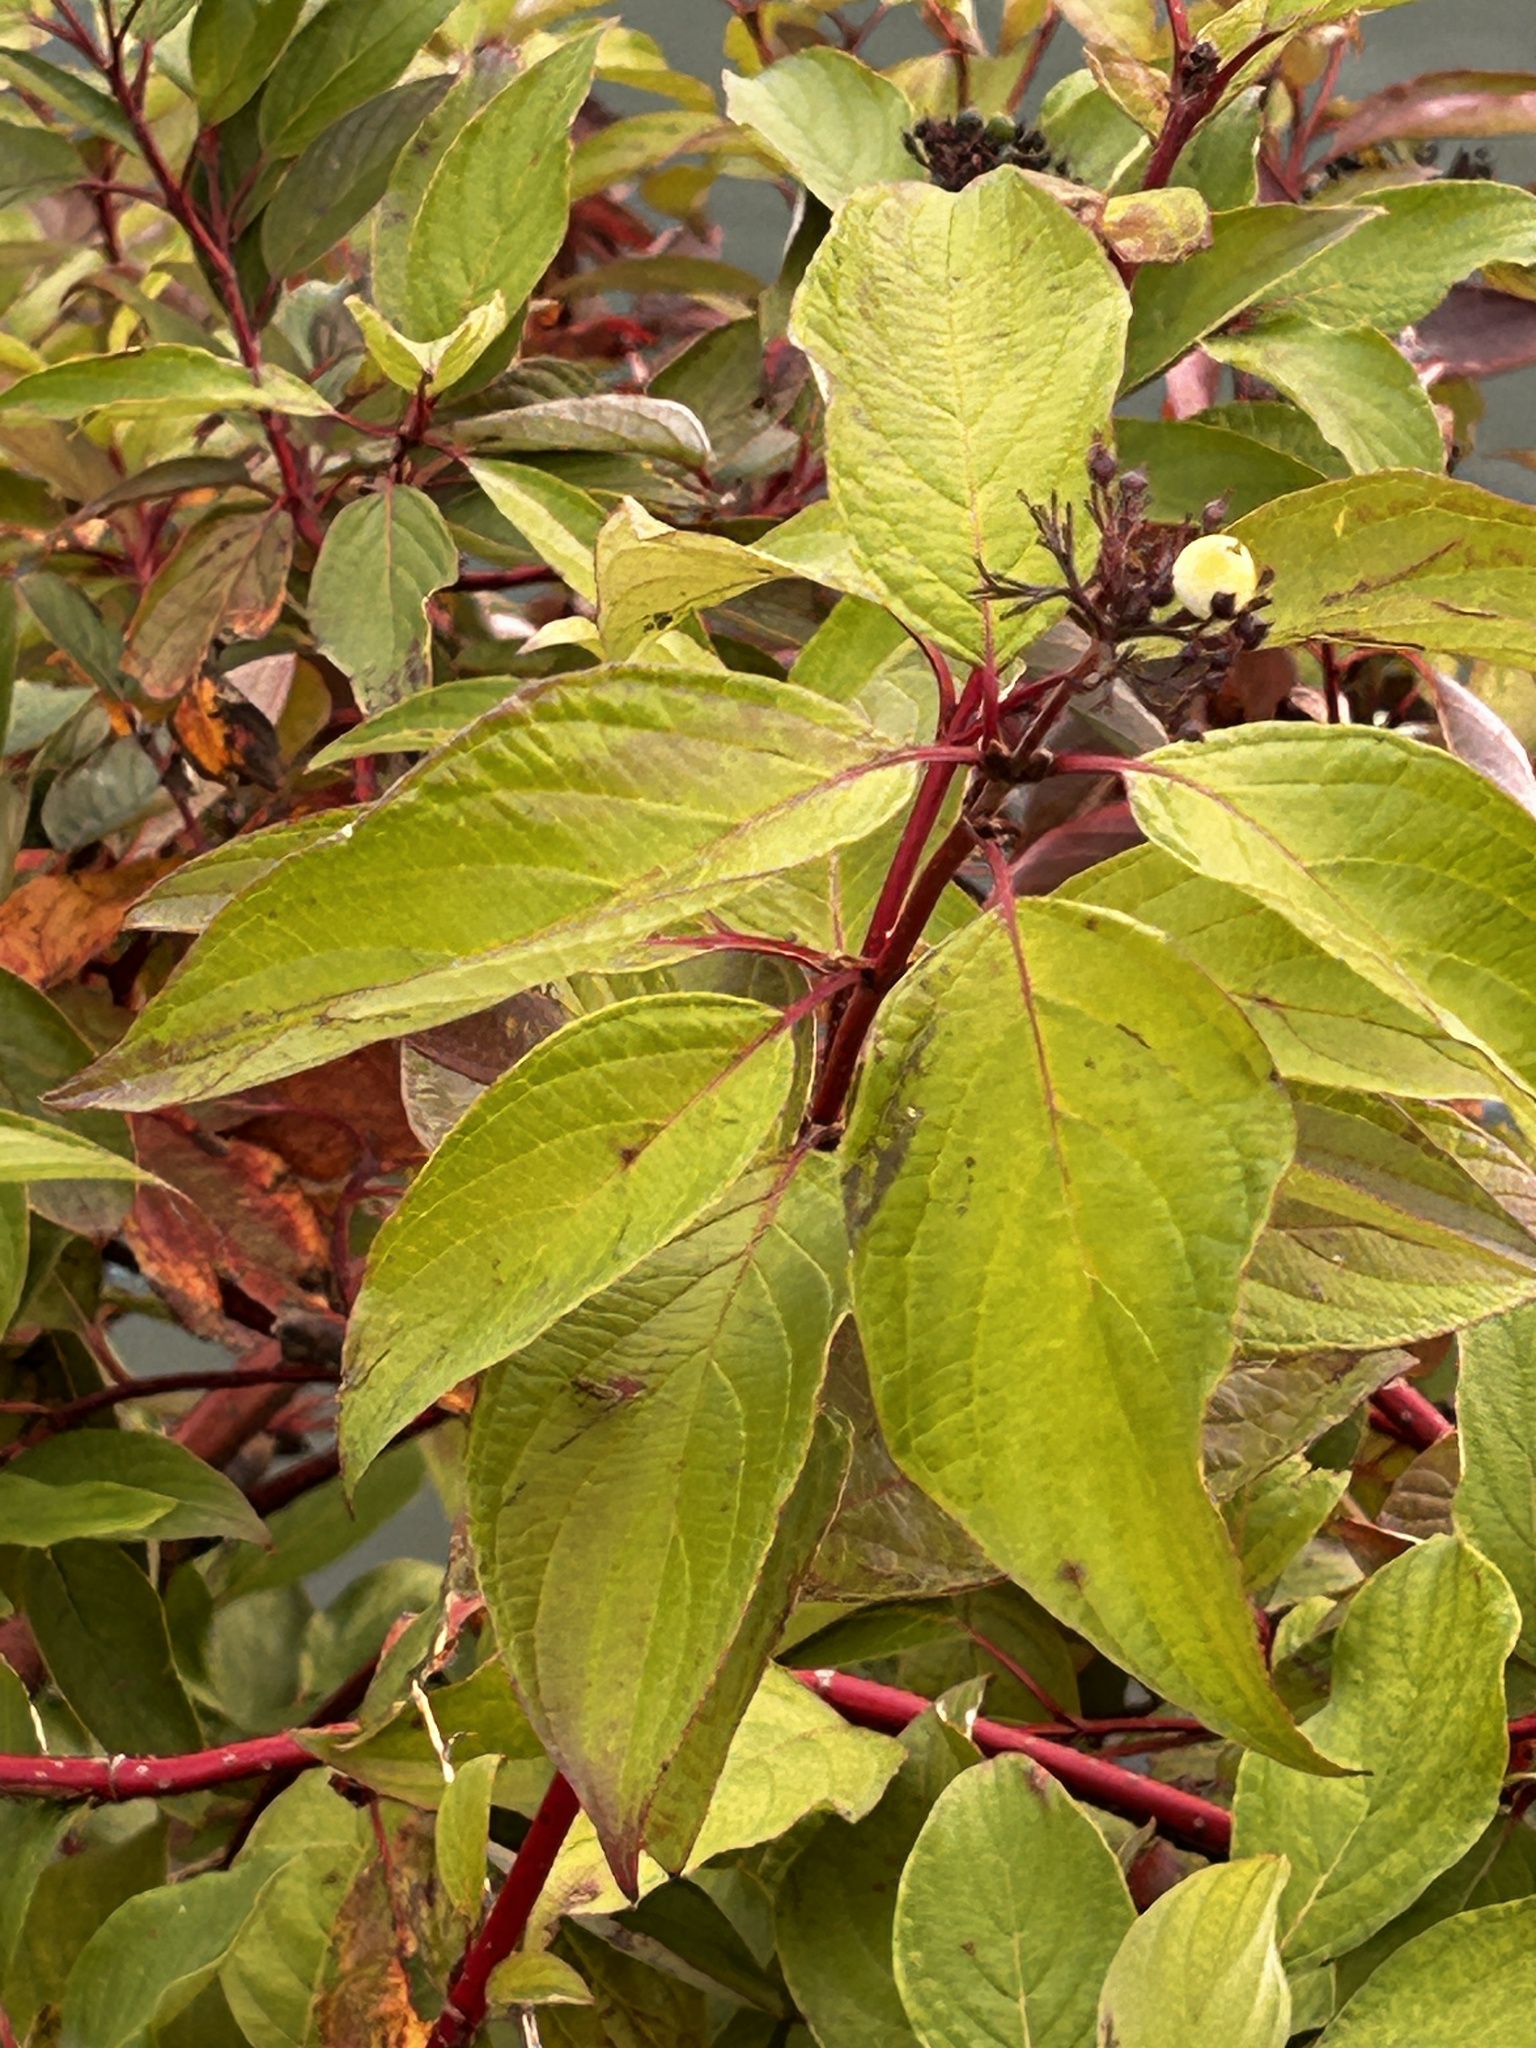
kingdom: Plantae
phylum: Tracheophyta
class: Magnoliopsida
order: Cornales
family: Cornaceae
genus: Cornus
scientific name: Cornus sericea
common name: Red-osier dogwood
